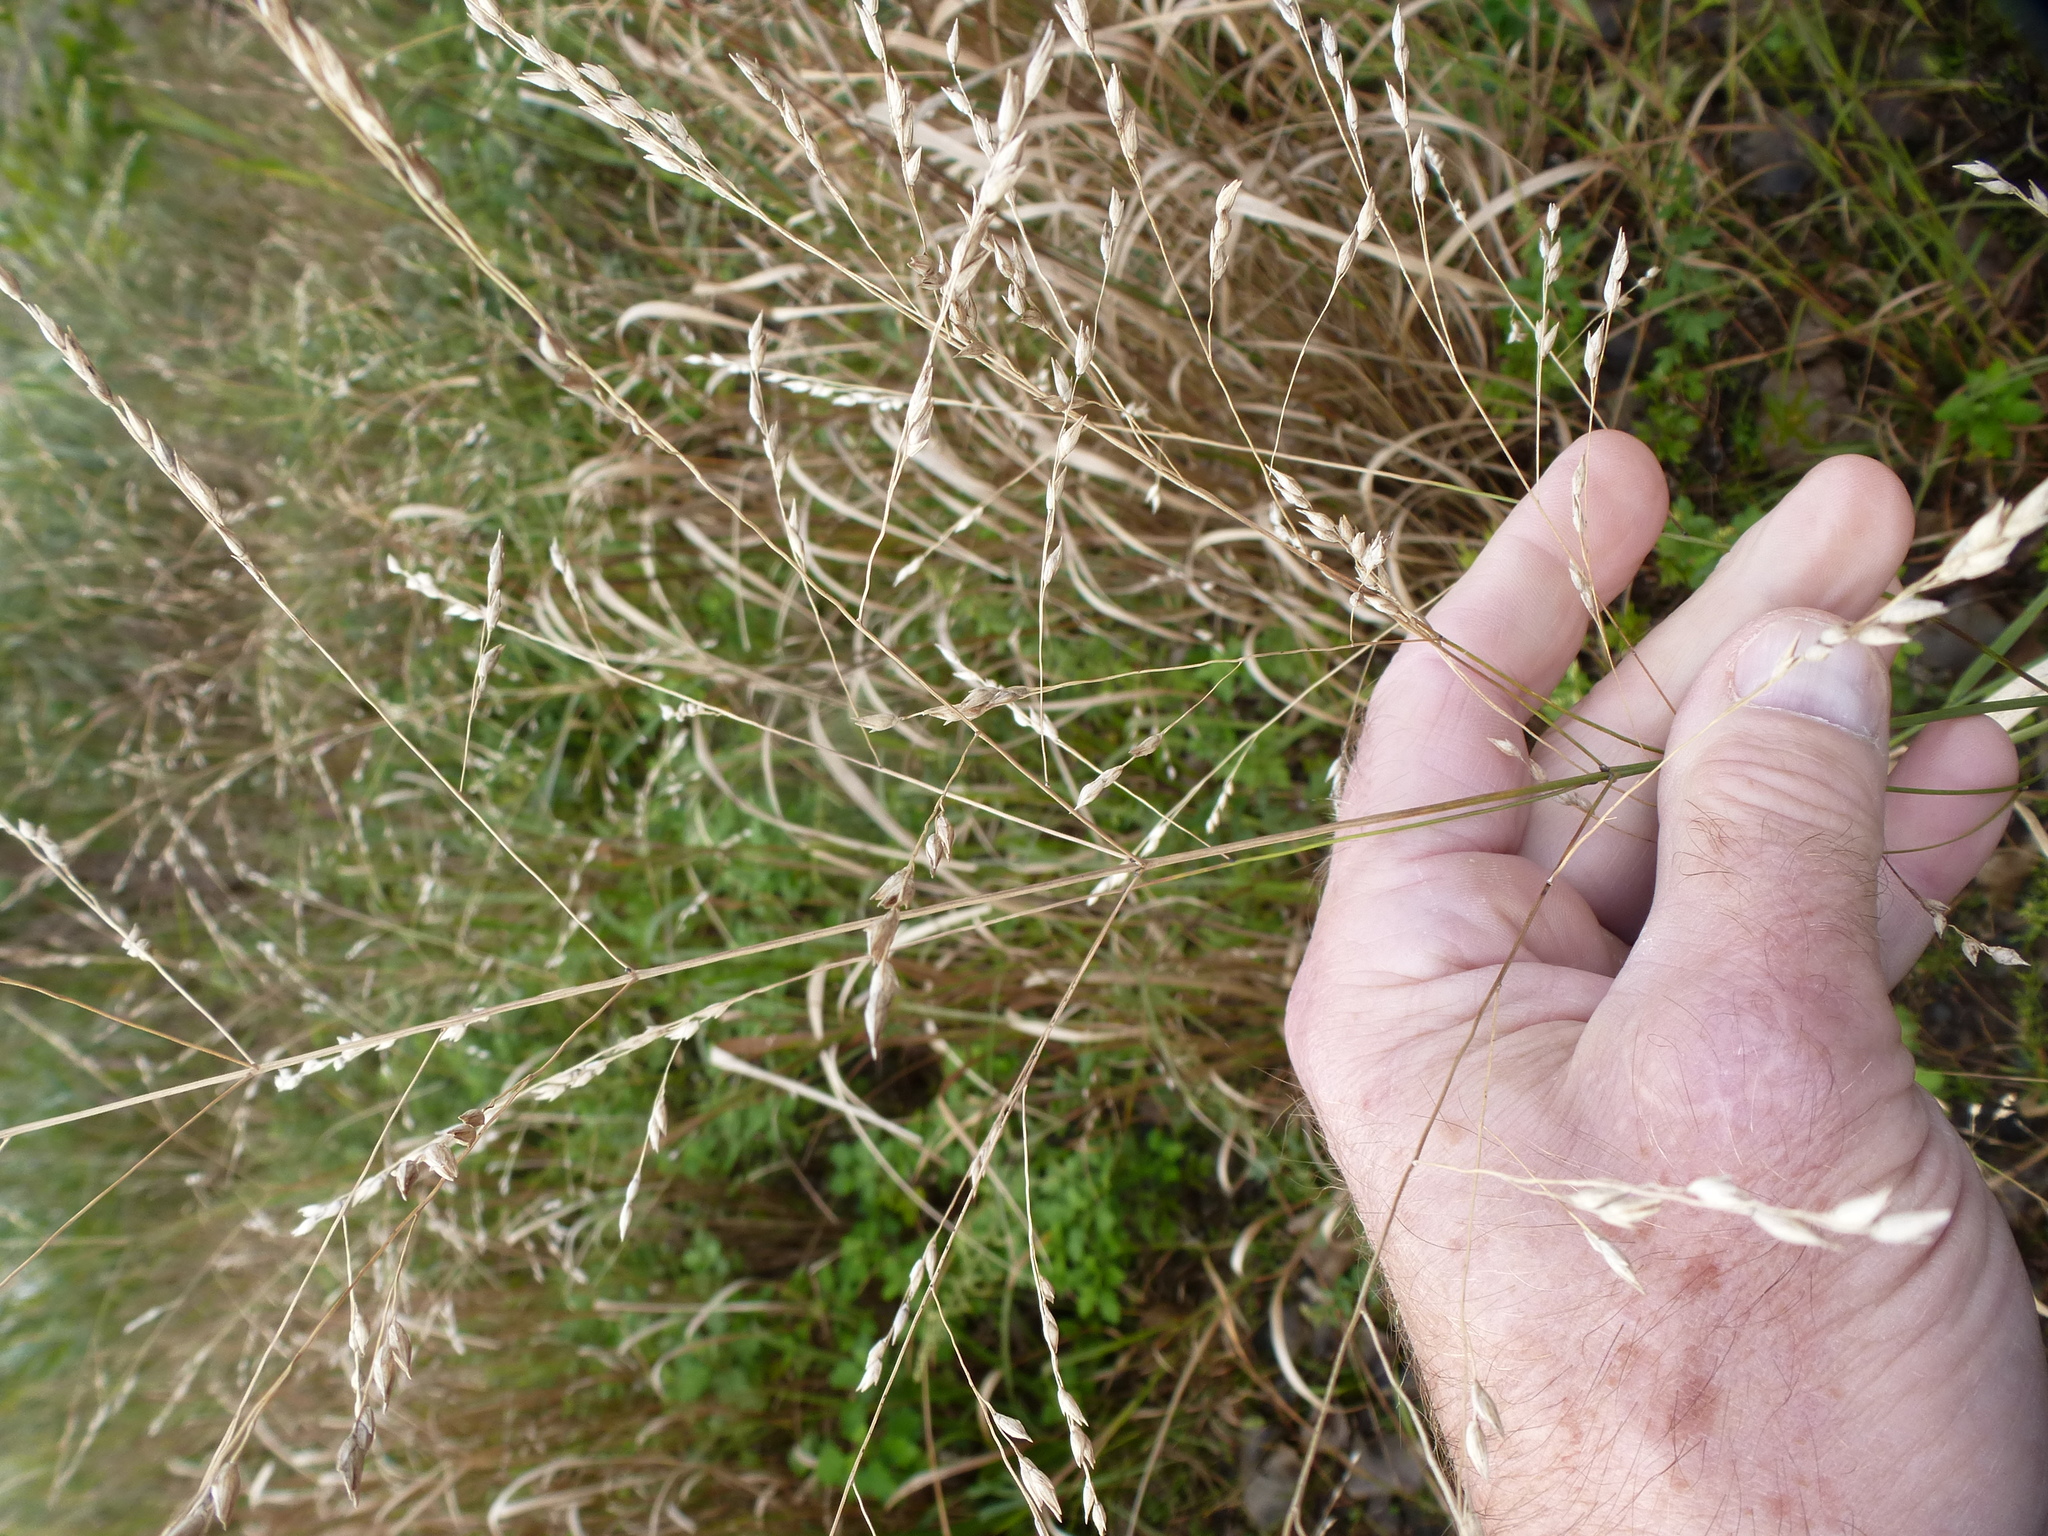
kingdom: Plantae
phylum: Tracheophyta
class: Liliopsida
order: Poales
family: Poaceae
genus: Panicum
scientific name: Panicum virgatum
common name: Switchgrass
